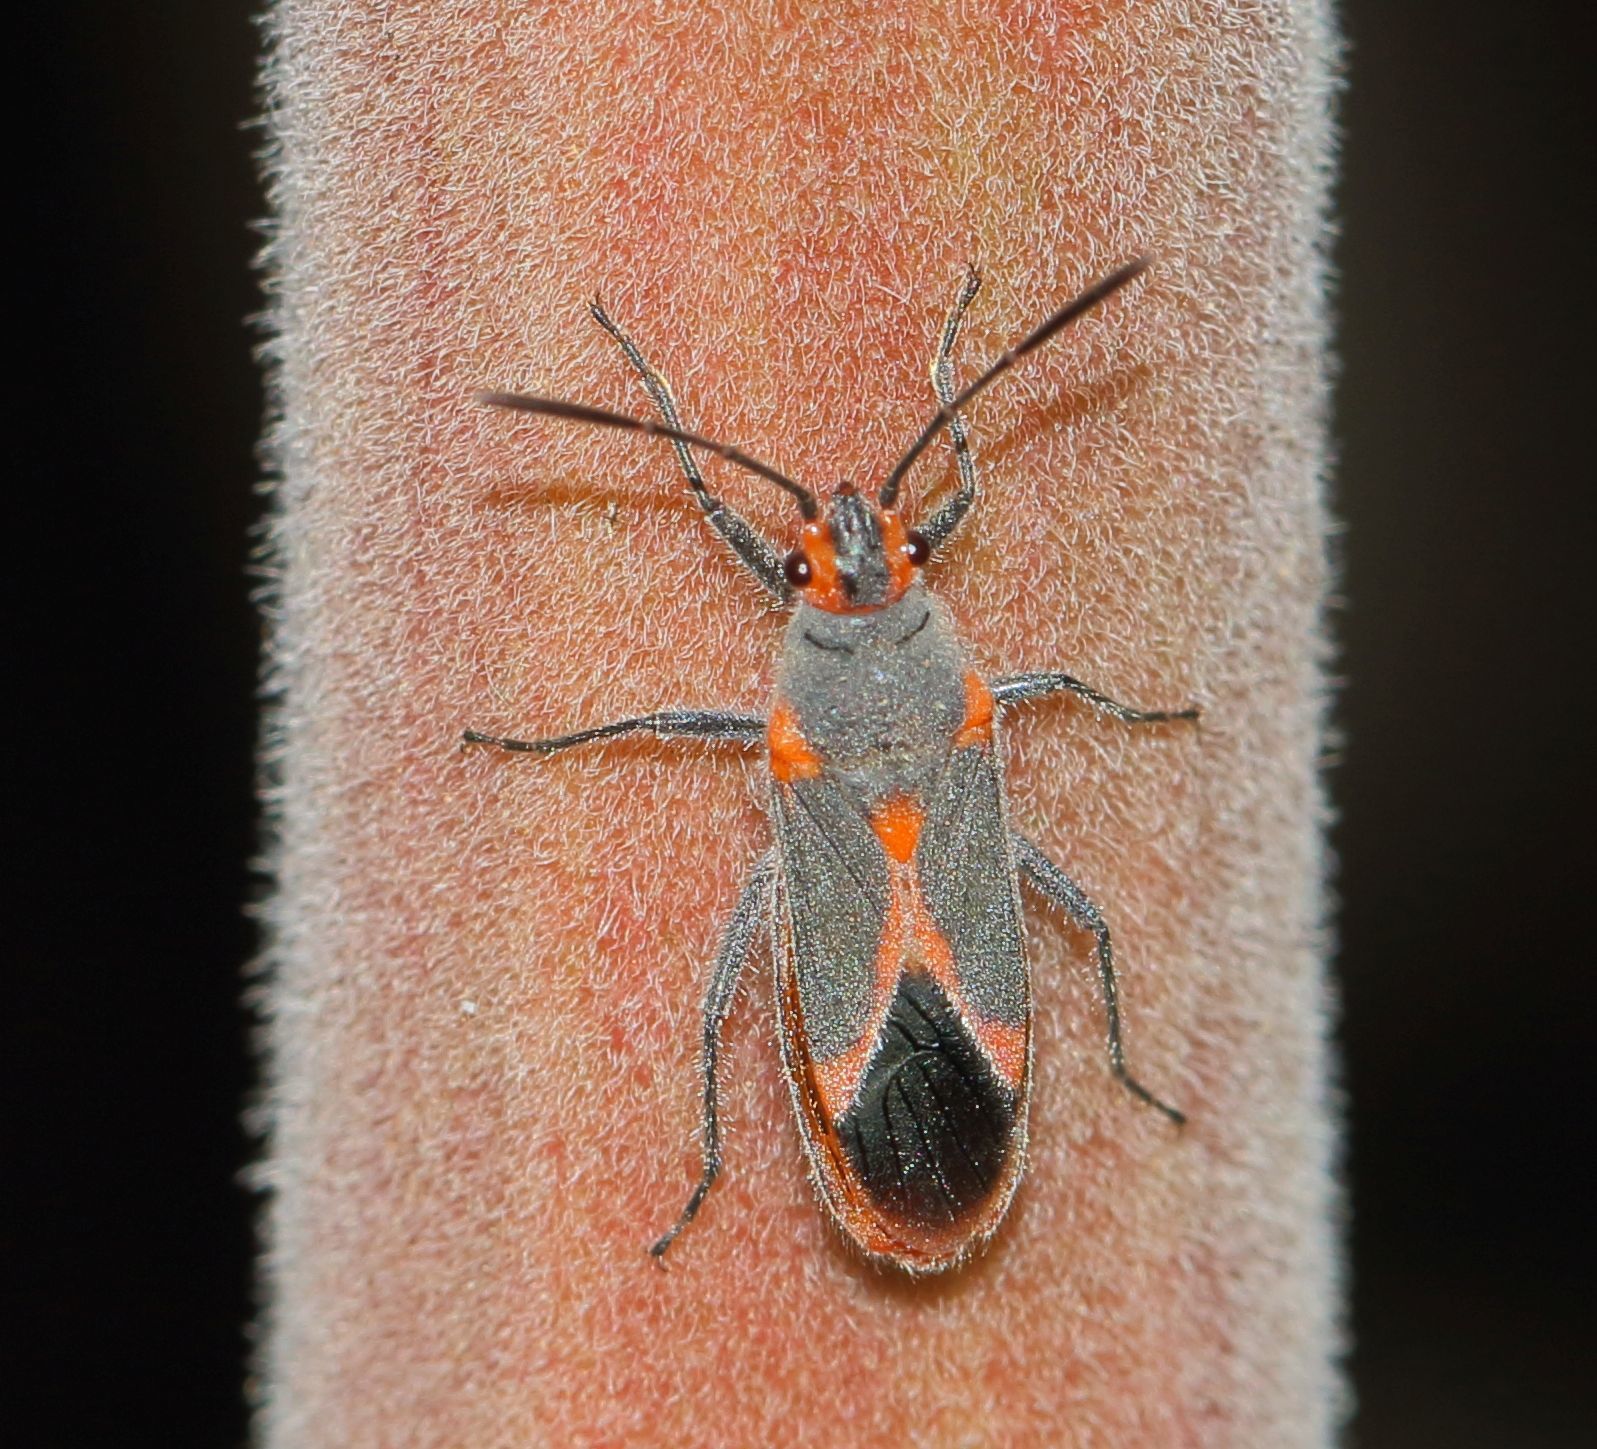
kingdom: Animalia
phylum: Arthropoda
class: Insecta
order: Hemiptera
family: Lygaeidae
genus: Caenocoris
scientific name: Caenocoris nerii
